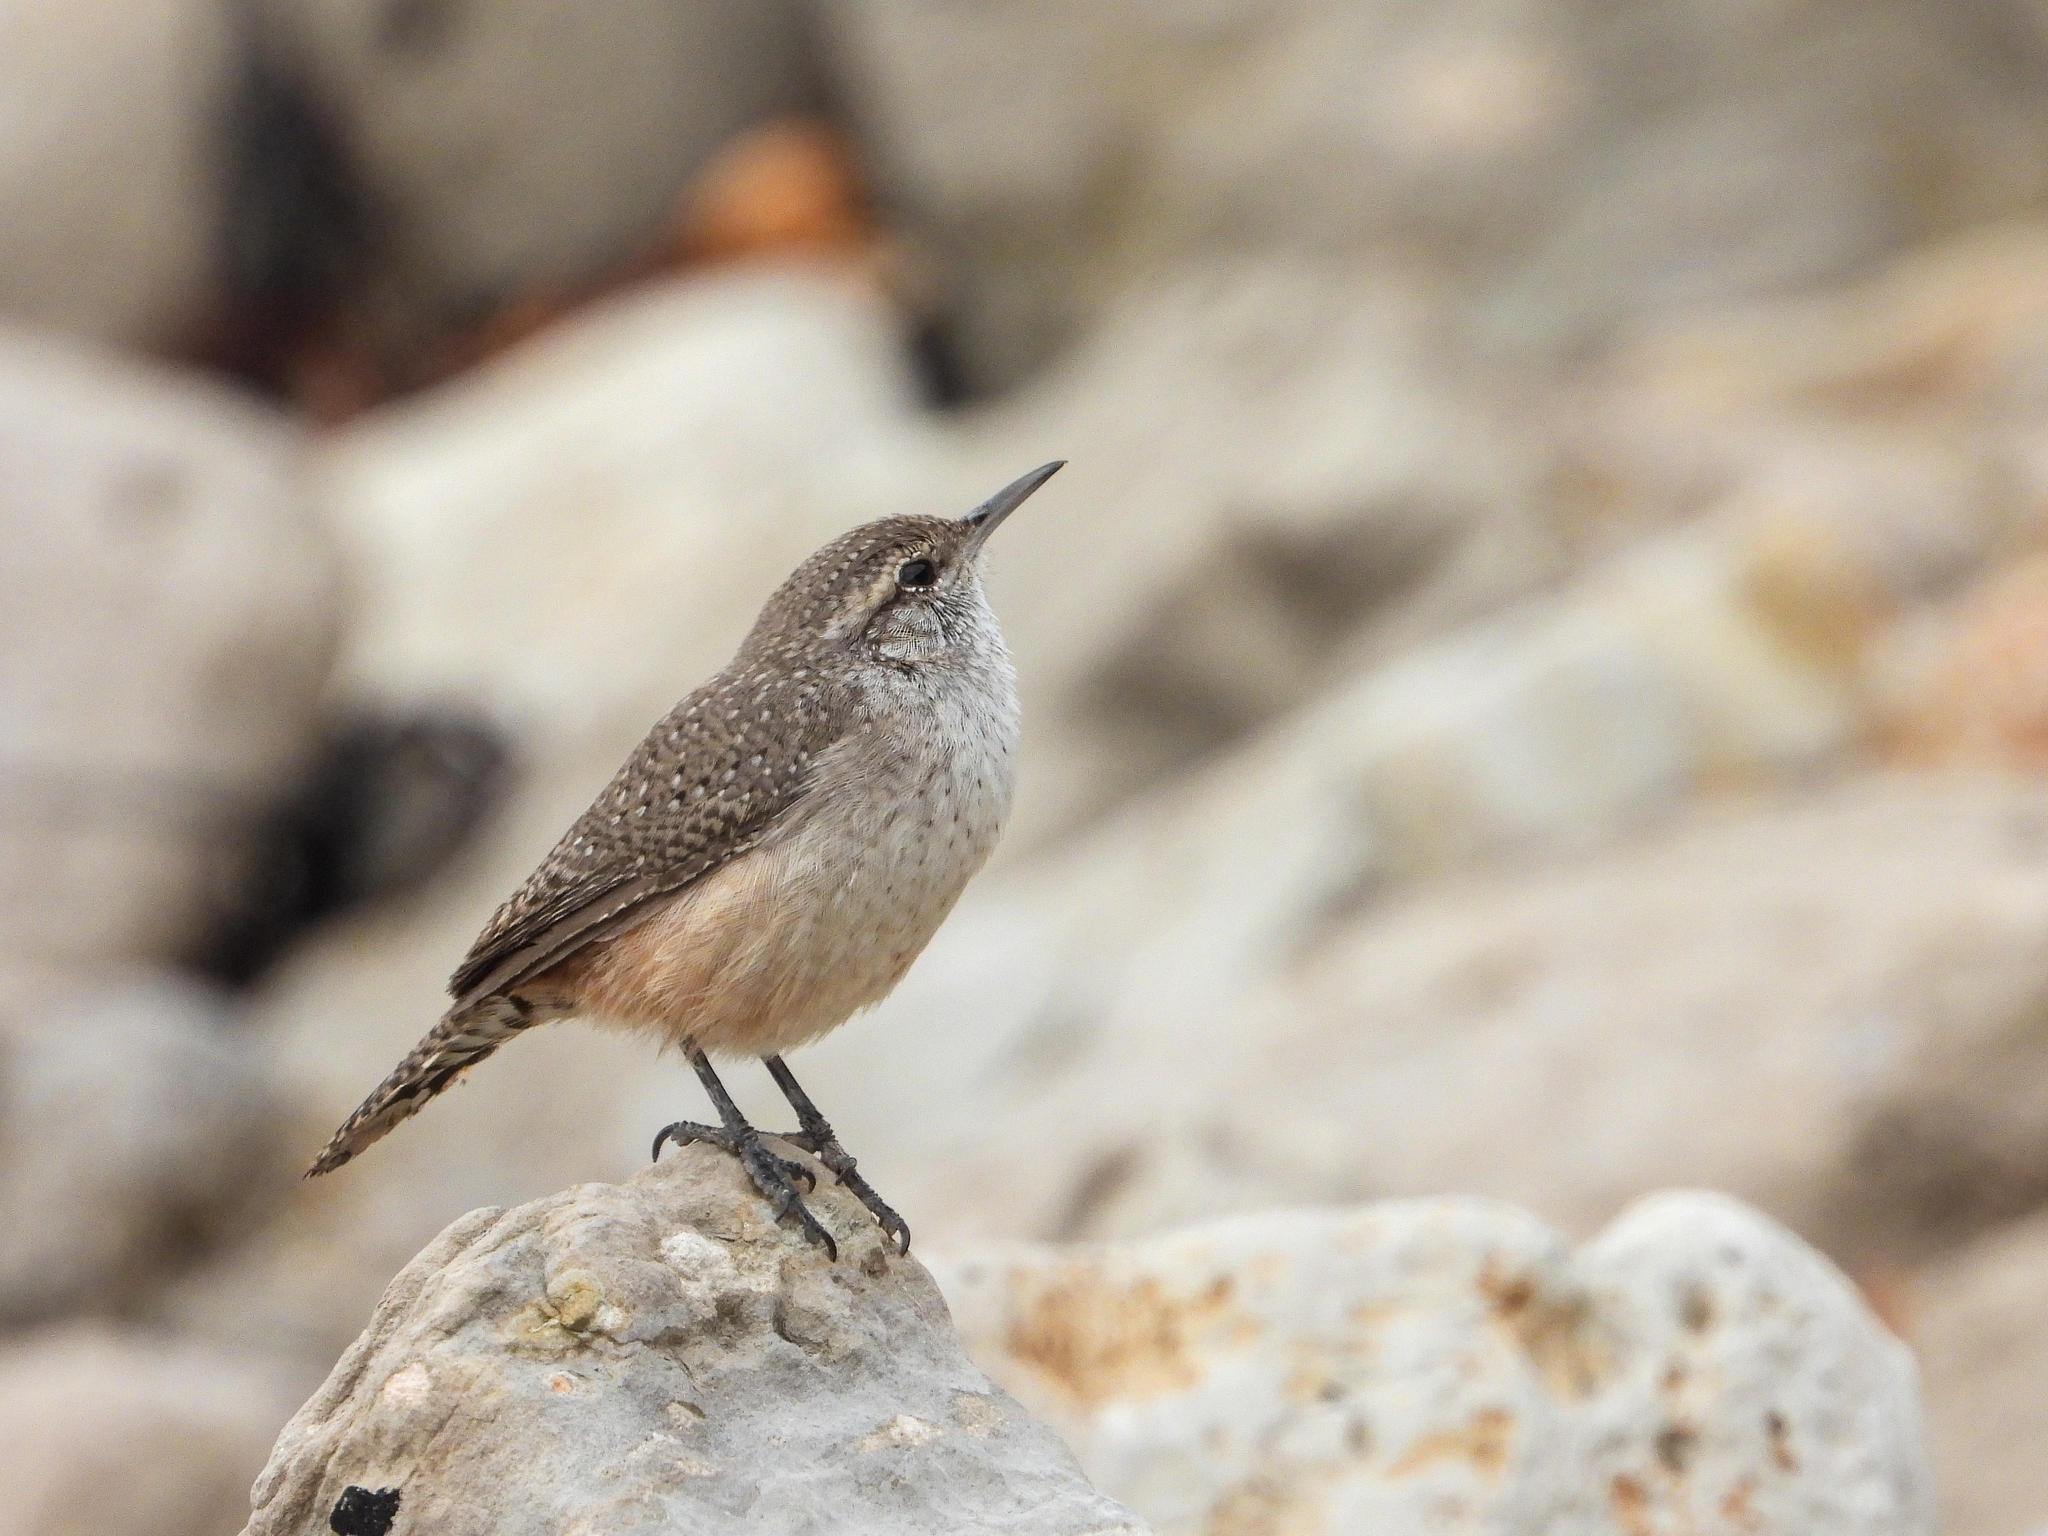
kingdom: Animalia
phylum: Chordata
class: Aves
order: Passeriformes
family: Troglodytidae
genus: Salpinctes
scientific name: Salpinctes obsoletus
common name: Rock wren
